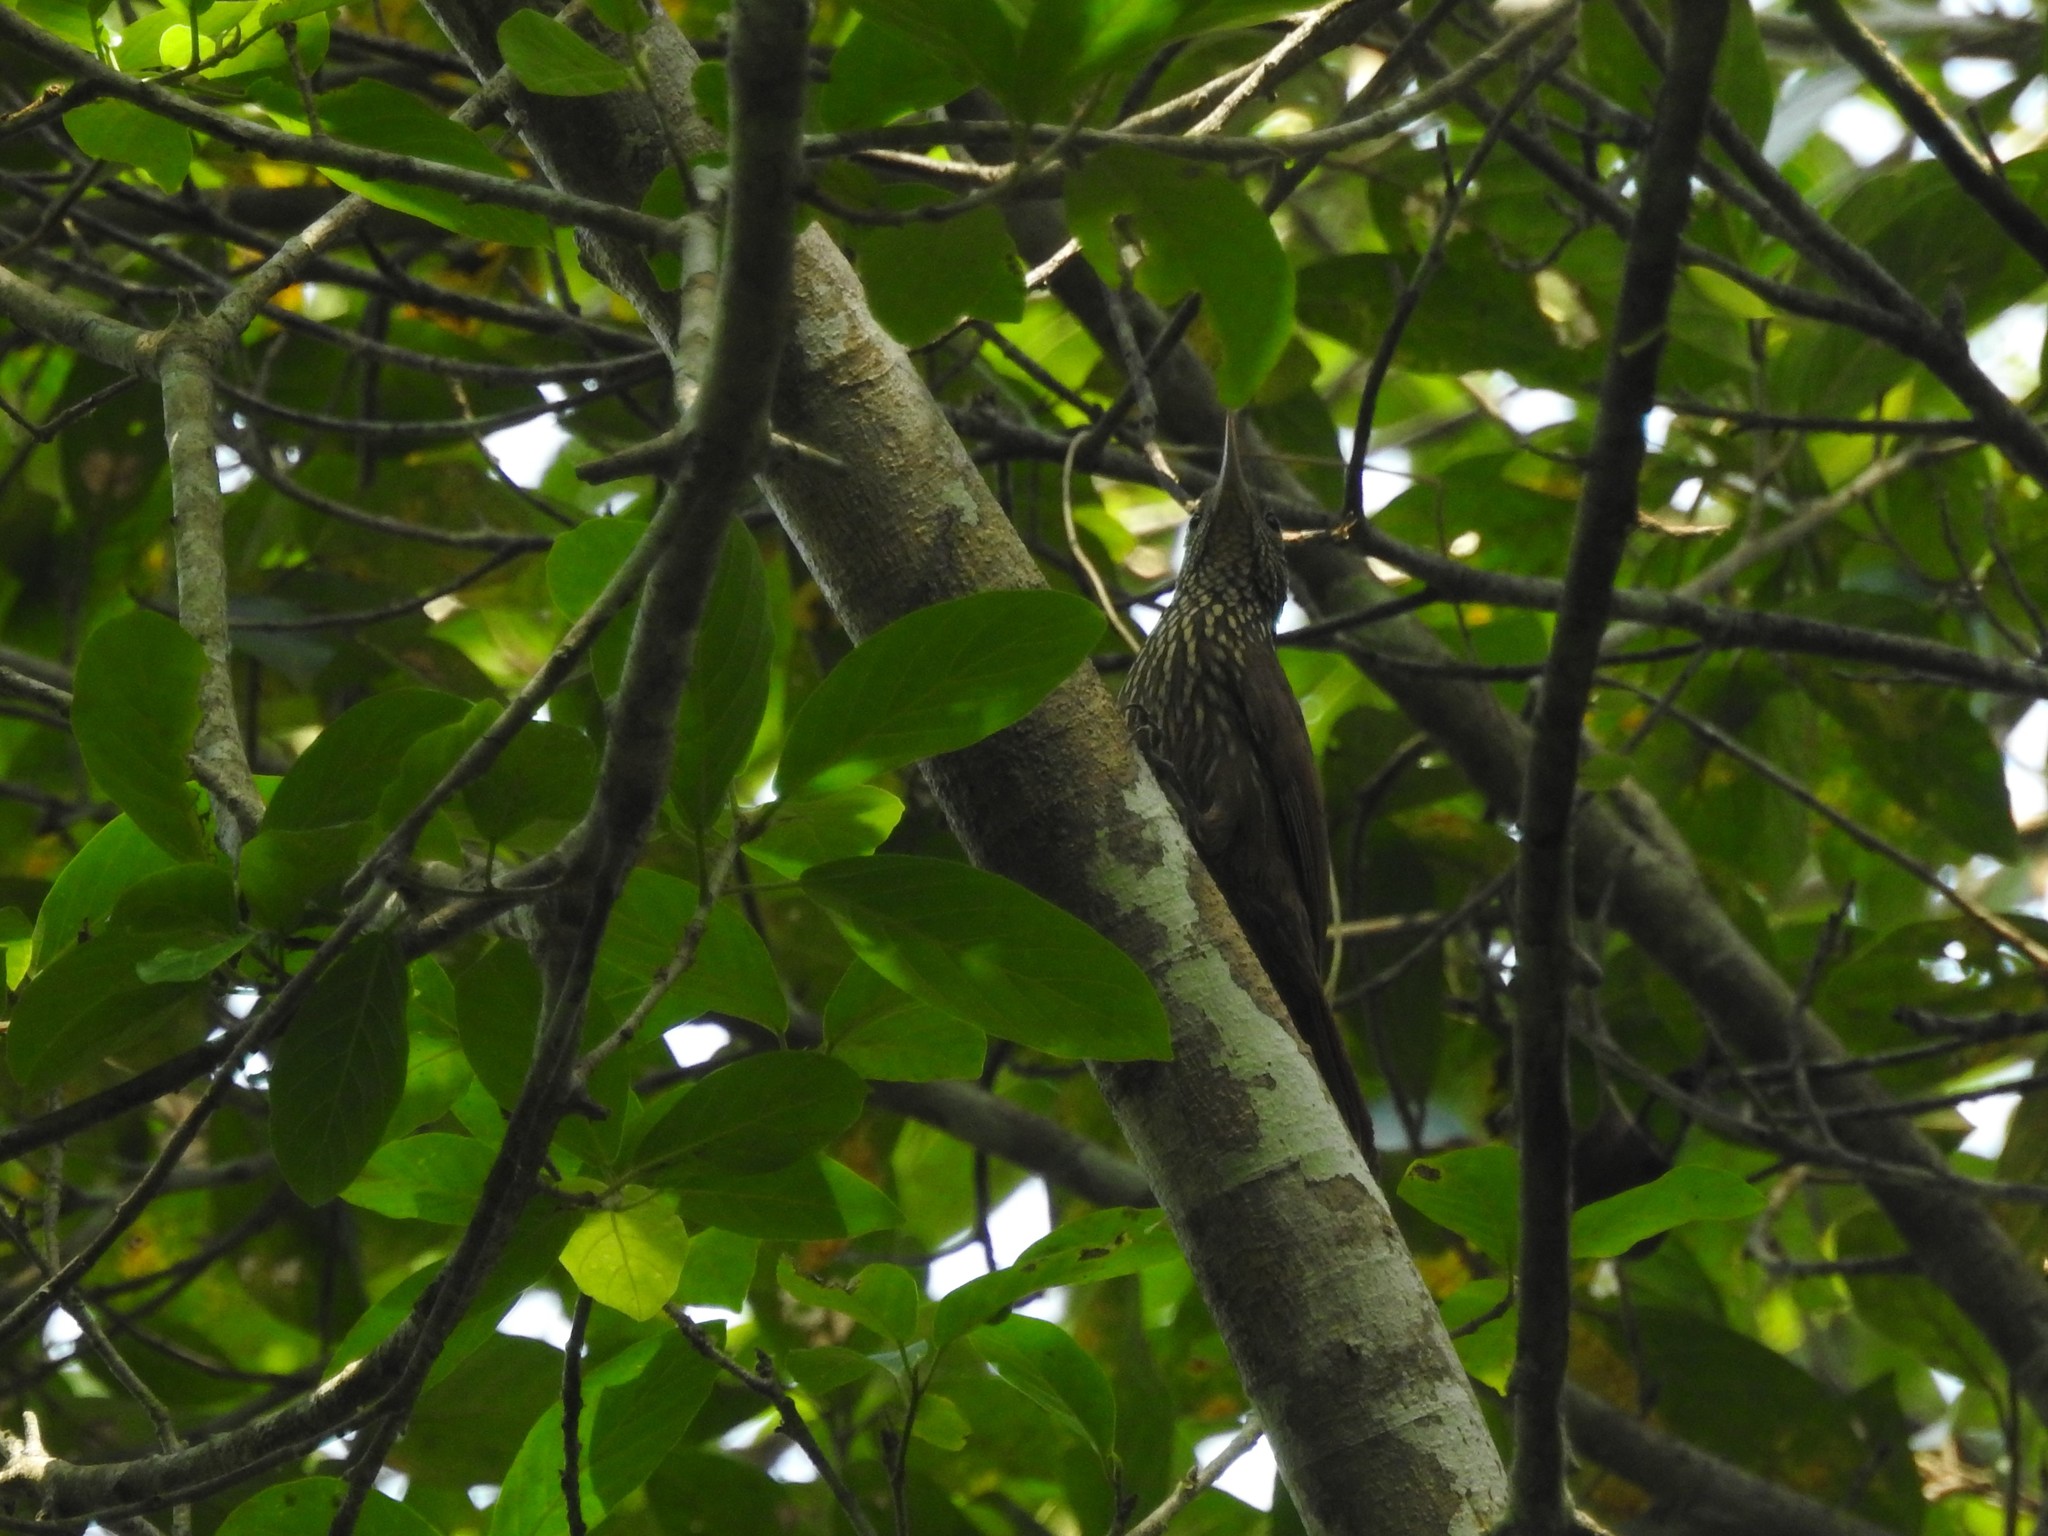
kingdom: Animalia
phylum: Chordata
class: Aves
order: Passeriformes
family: Furnariidae
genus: Xiphorhynchus
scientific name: Xiphorhynchus obsoletus
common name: Striped woodcreeper
